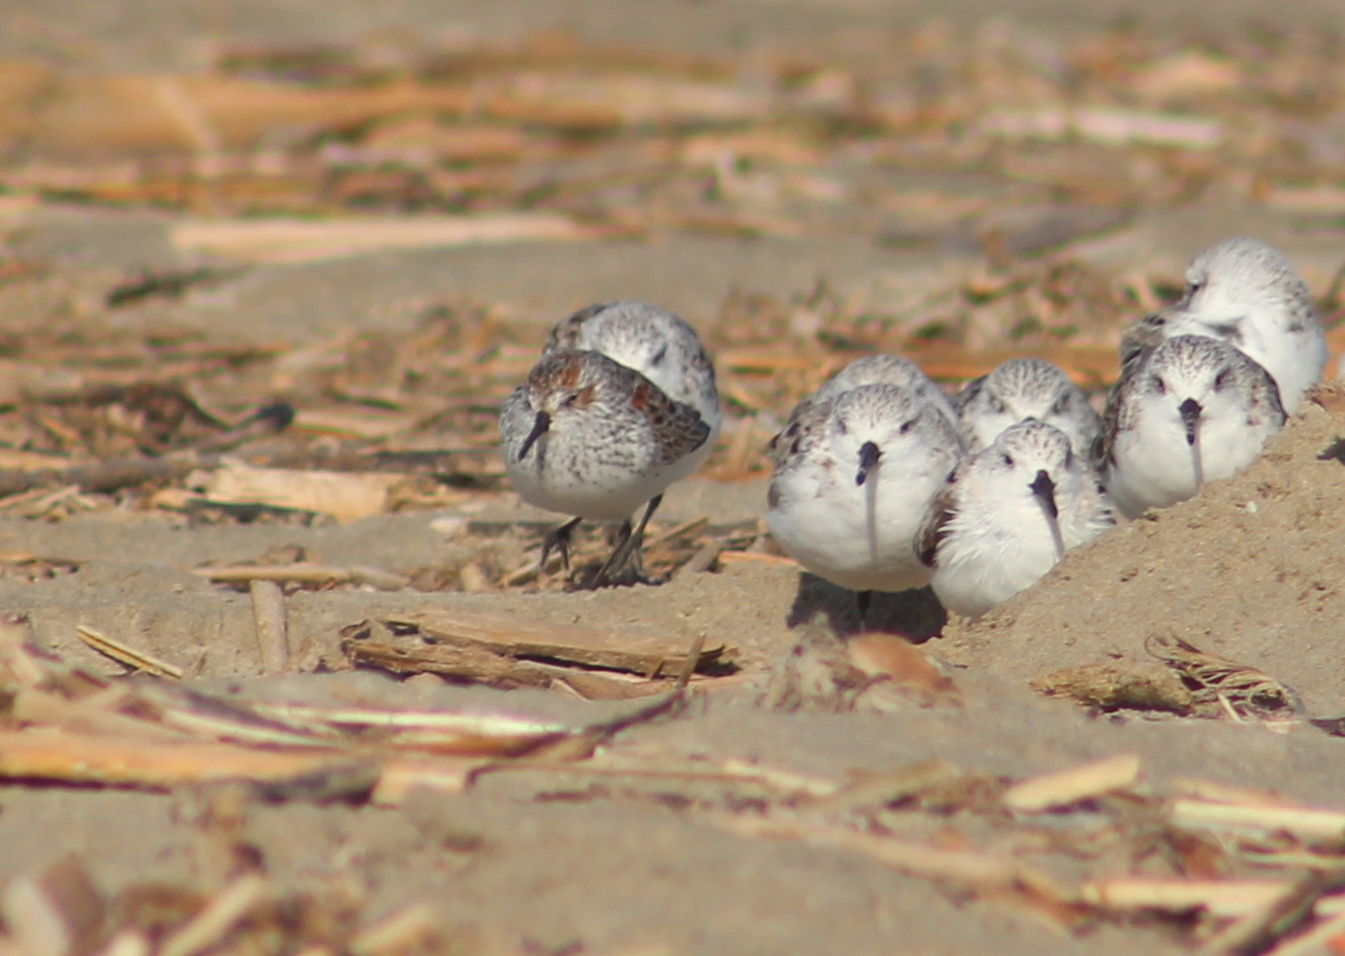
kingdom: Animalia
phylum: Chordata
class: Aves
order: Charadriiformes
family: Scolopacidae
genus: Calidris
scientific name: Calidris mauri
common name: Western sandpiper
